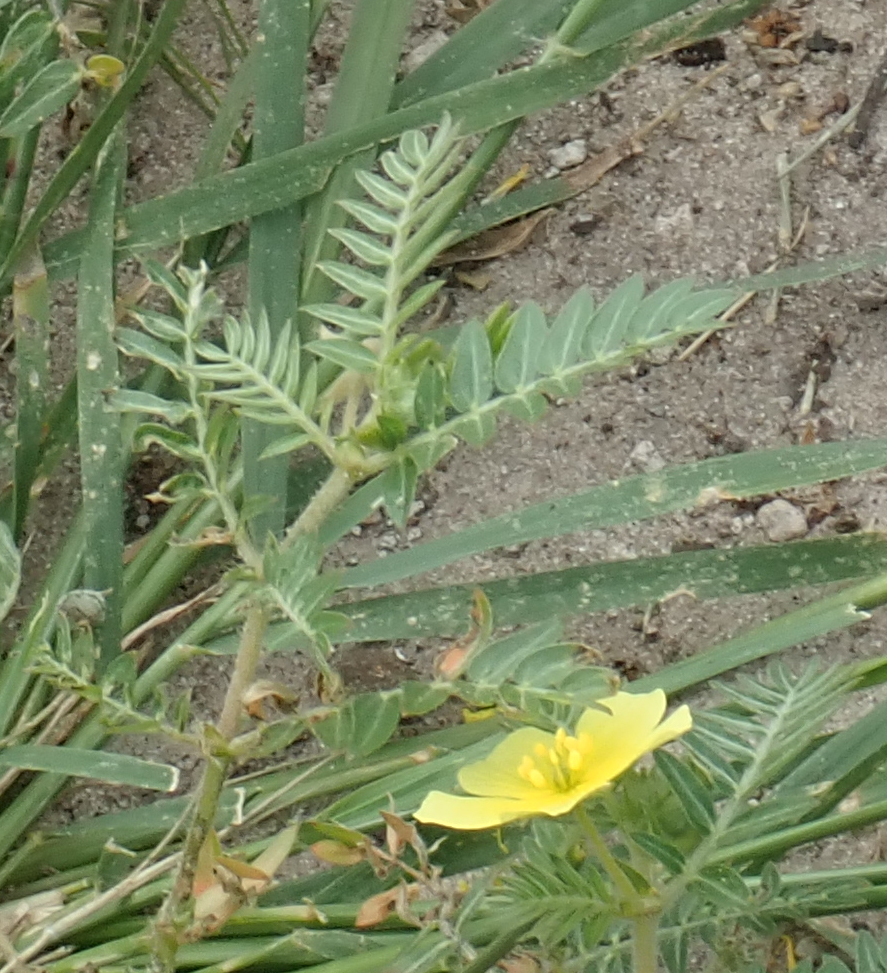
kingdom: Plantae
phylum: Tracheophyta
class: Magnoliopsida
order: Zygophyllales
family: Zygophyllaceae
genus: Tribulus
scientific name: Tribulus terrestris
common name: Puncturevine
